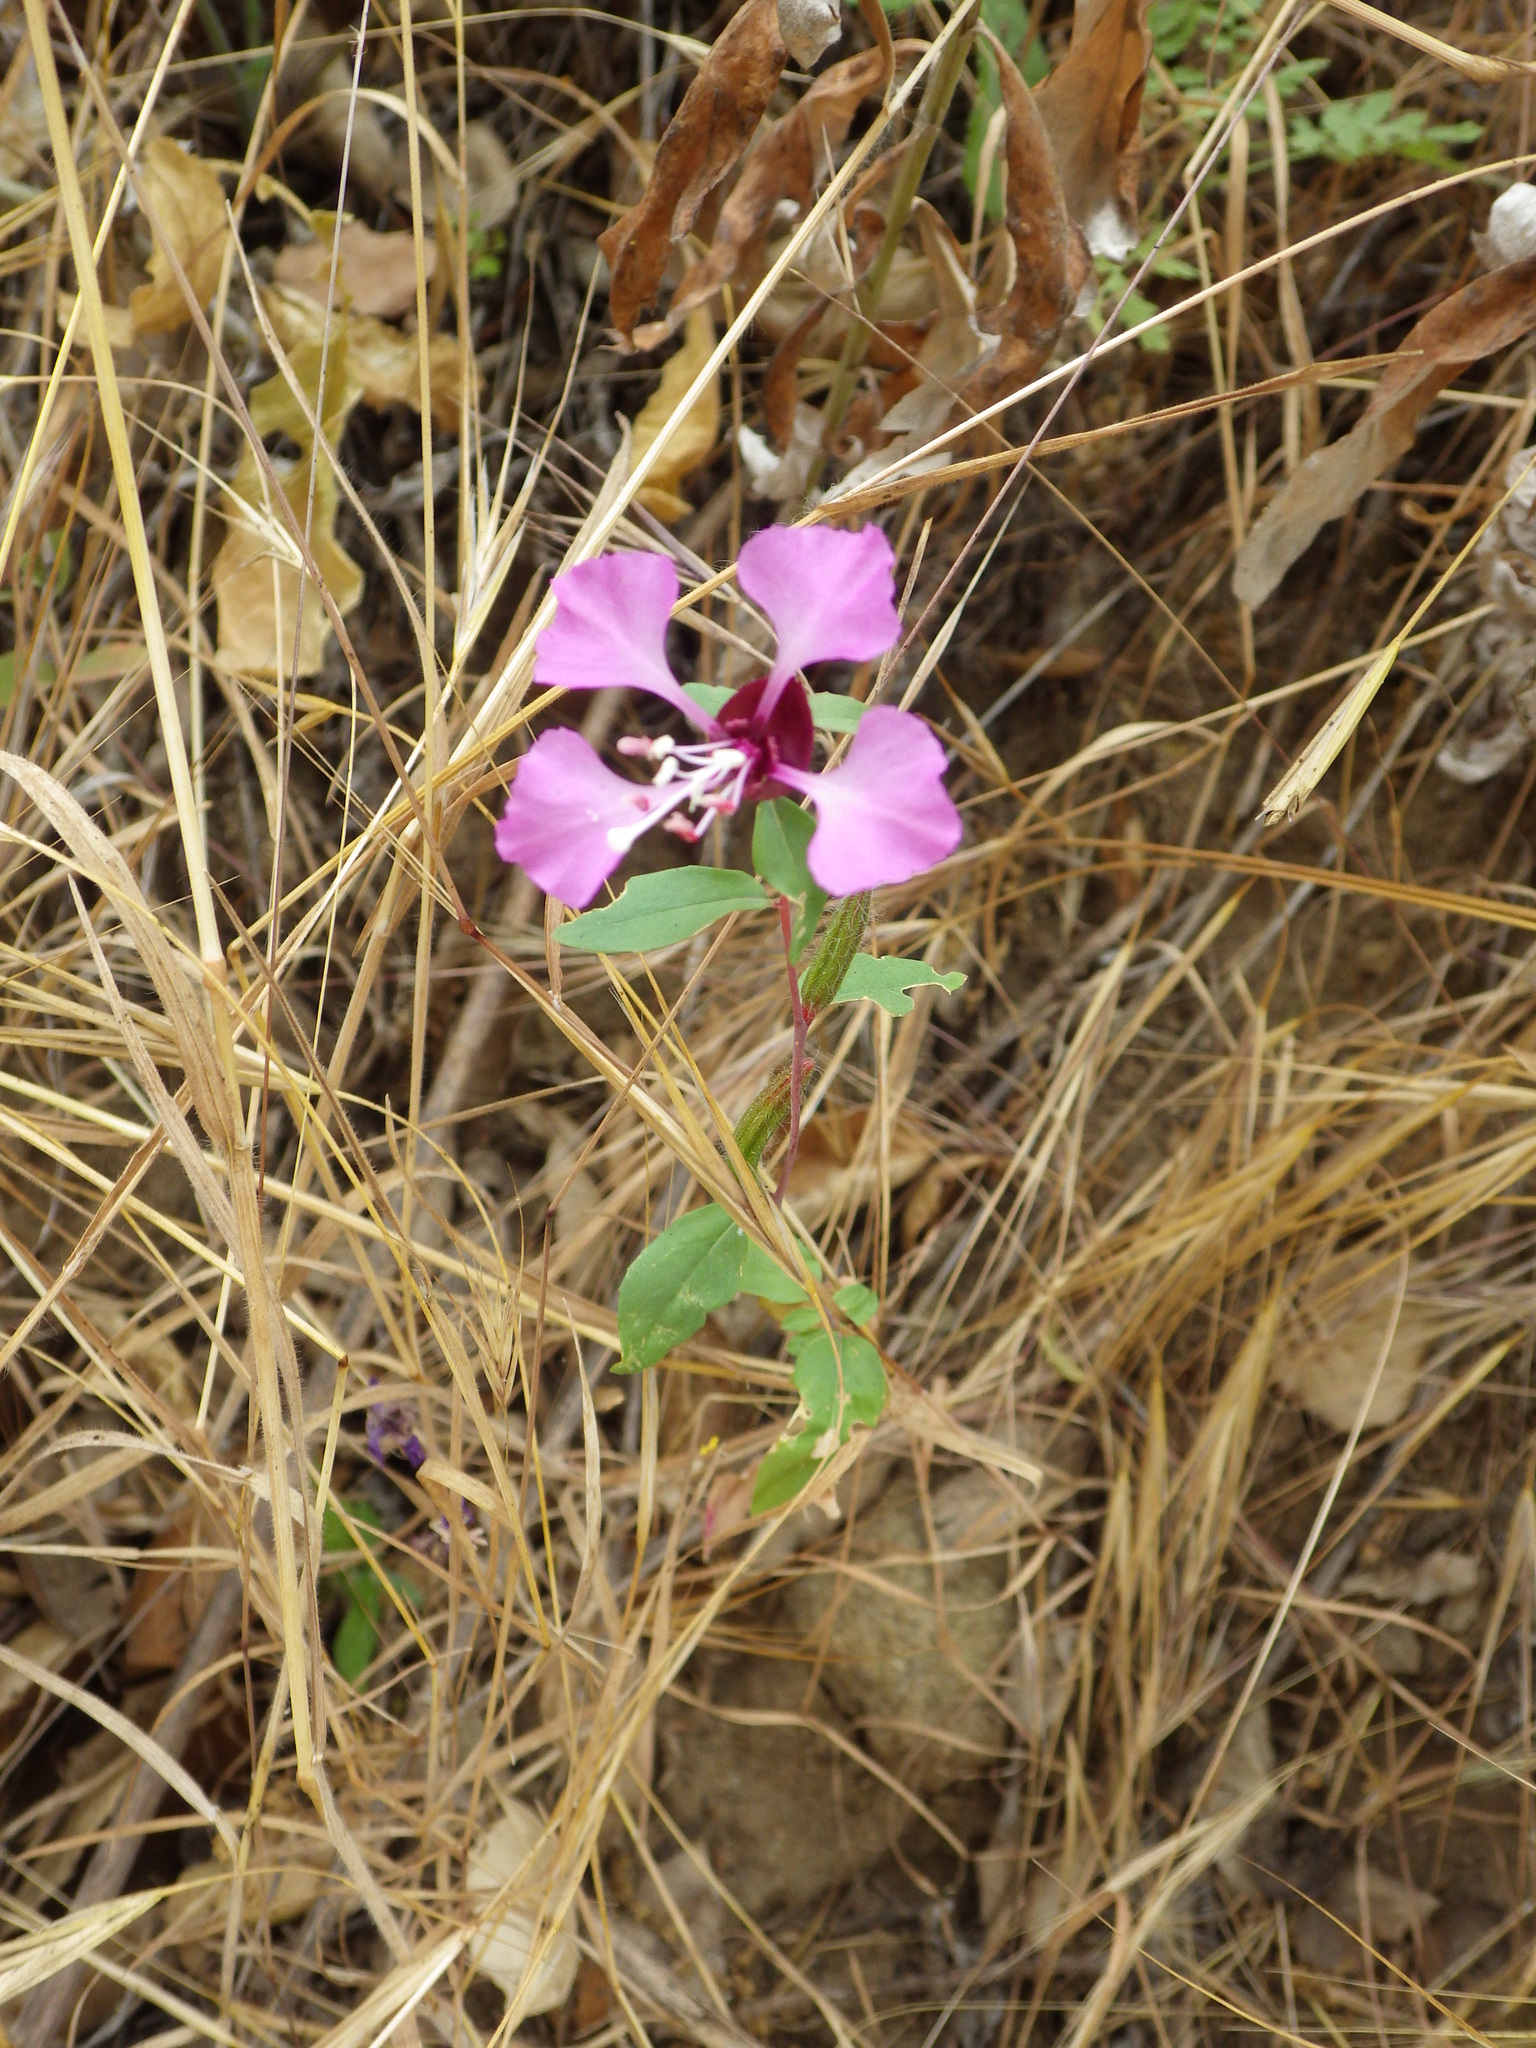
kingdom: Plantae
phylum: Tracheophyta
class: Magnoliopsida
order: Myrtales
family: Onagraceae
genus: Clarkia
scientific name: Clarkia unguiculata
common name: Clarkia
